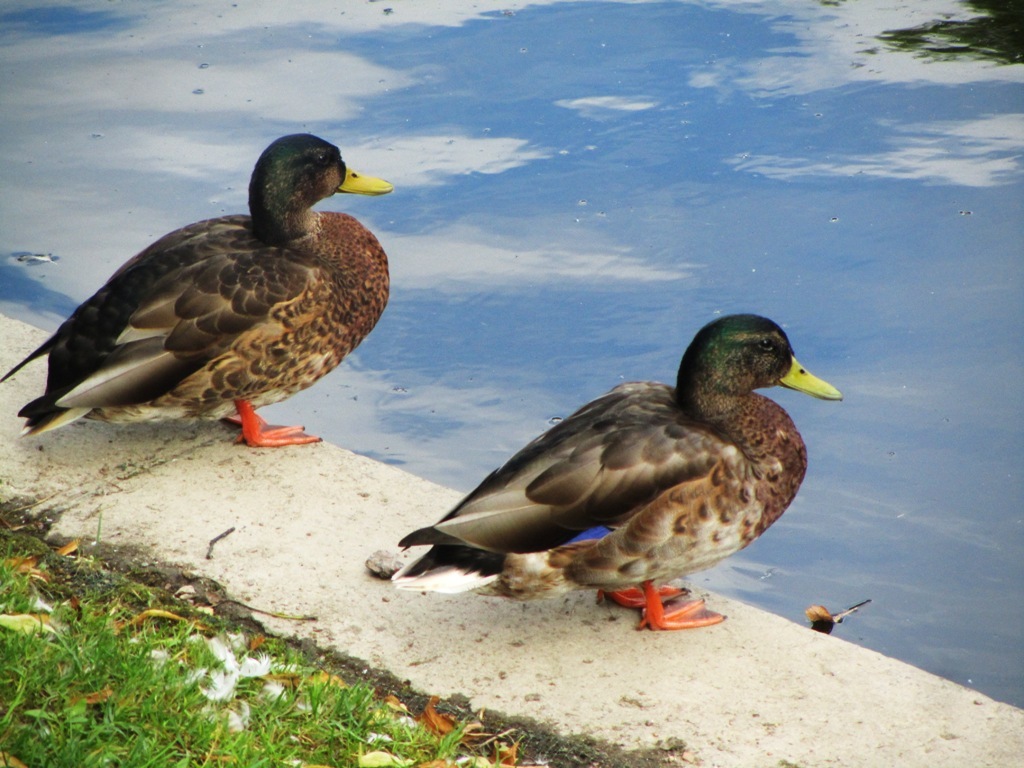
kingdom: Animalia
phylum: Chordata
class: Aves
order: Anseriformes
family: Anatidae
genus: Anas
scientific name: Anas platyrhynchos
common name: Mallard
